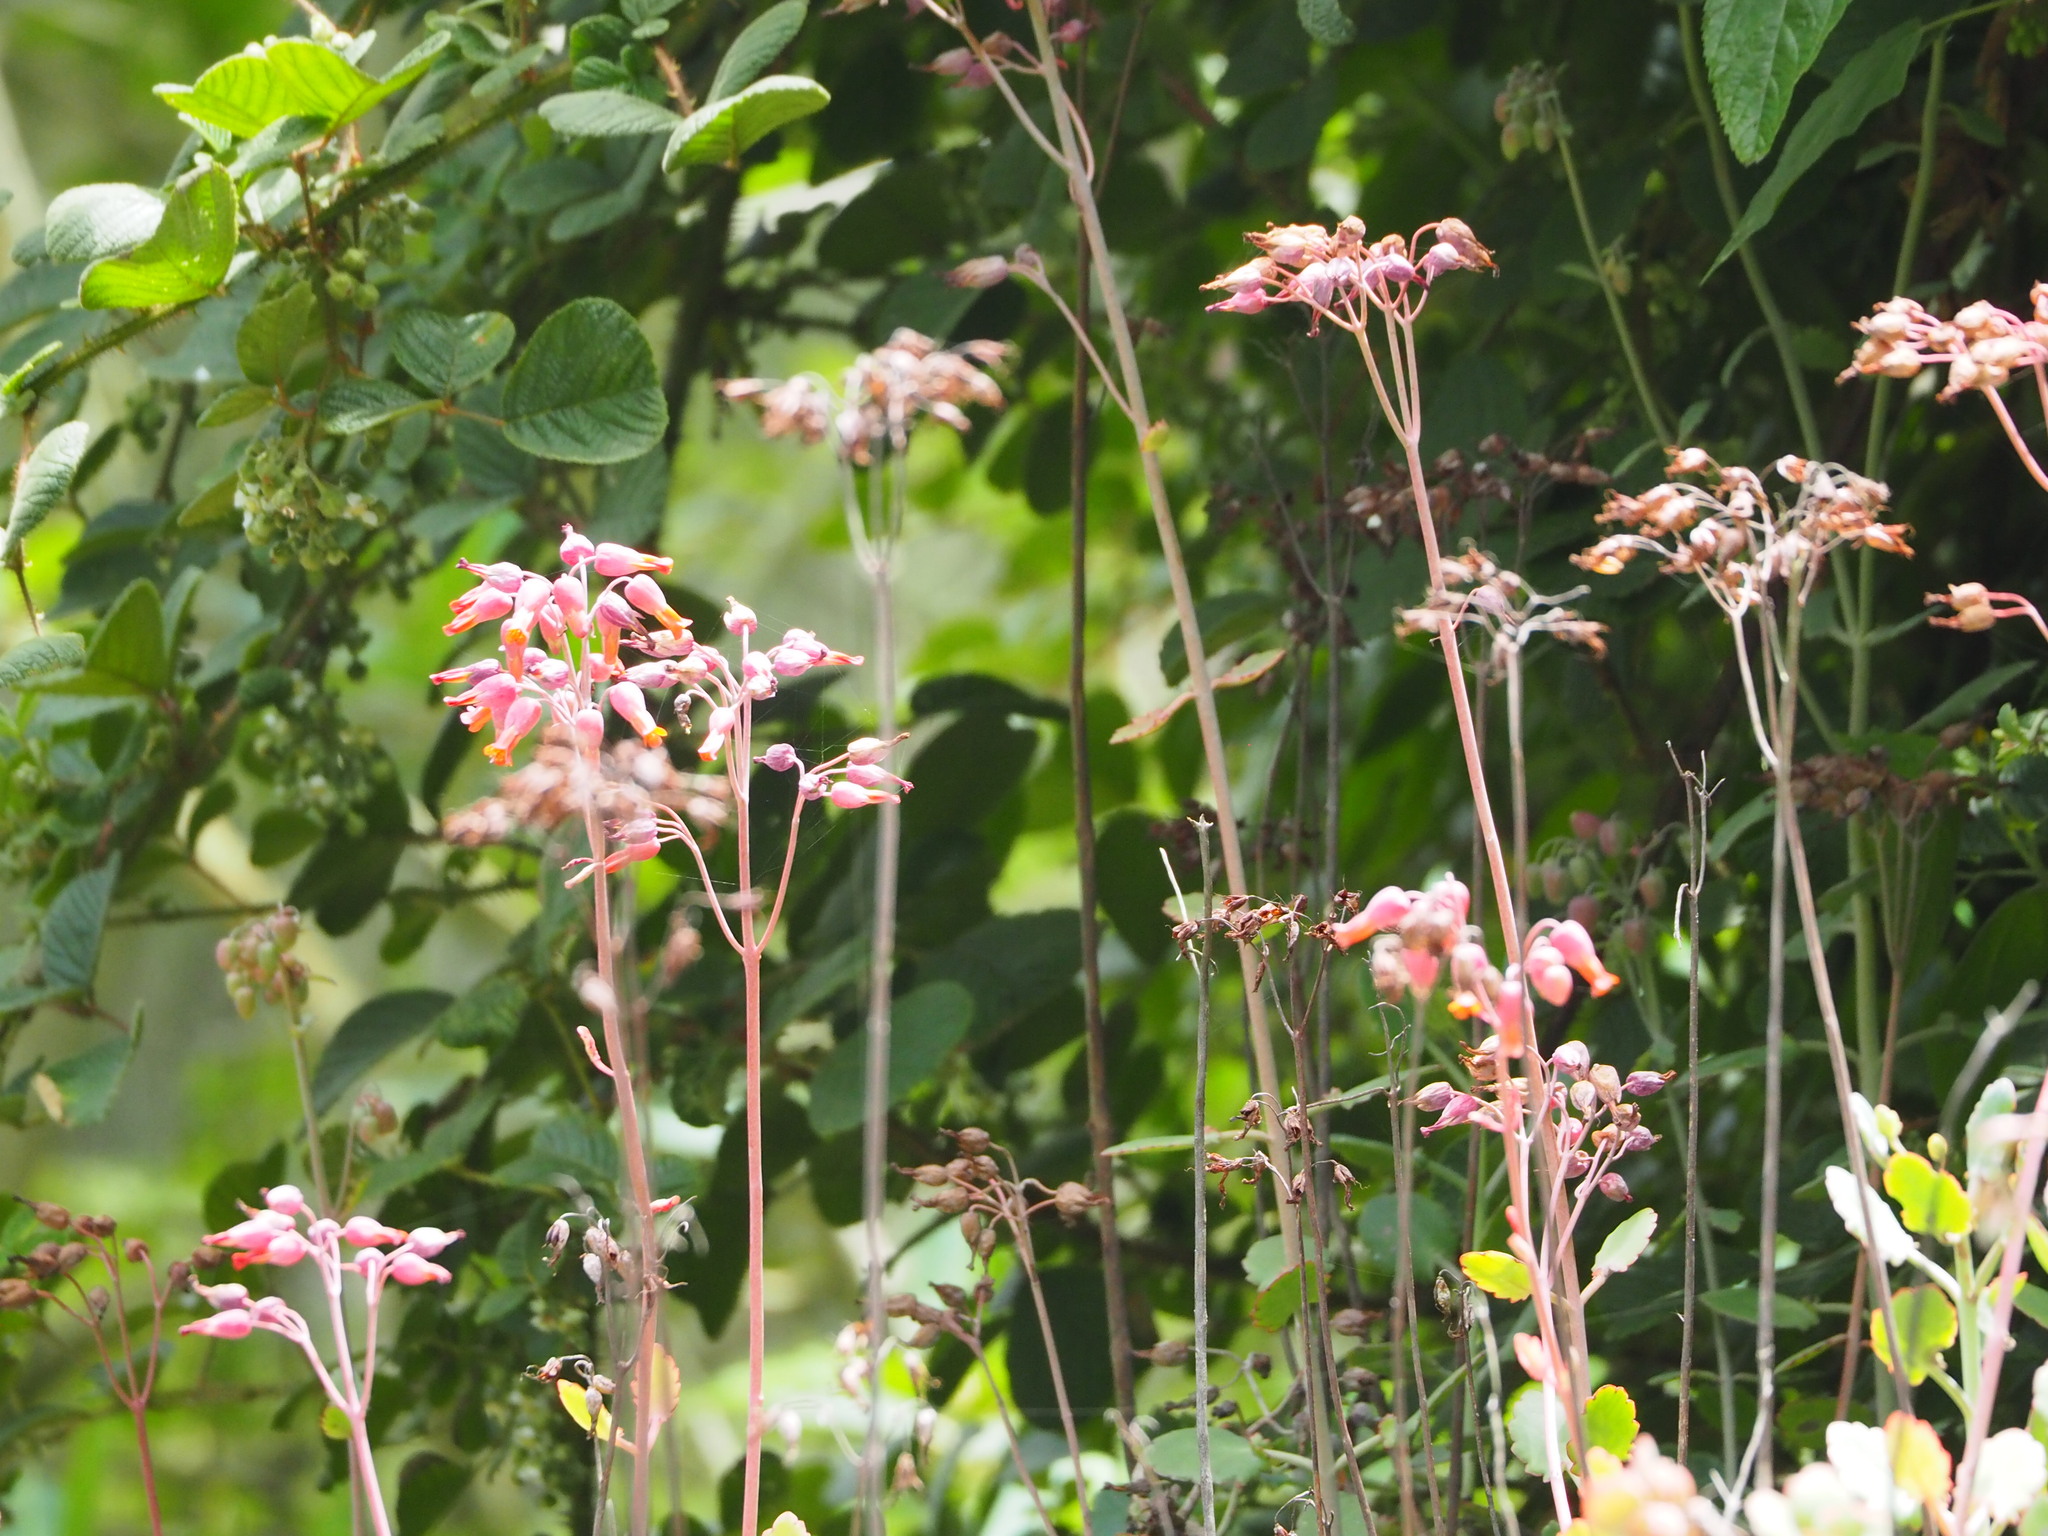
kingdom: Plantae
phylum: Tracheophyta
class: Magnoliopsida
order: Saxifragales
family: Crassulaceae
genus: Kalanchoe
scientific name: Kalanchoe laxiflora
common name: Milky widow's thrill
